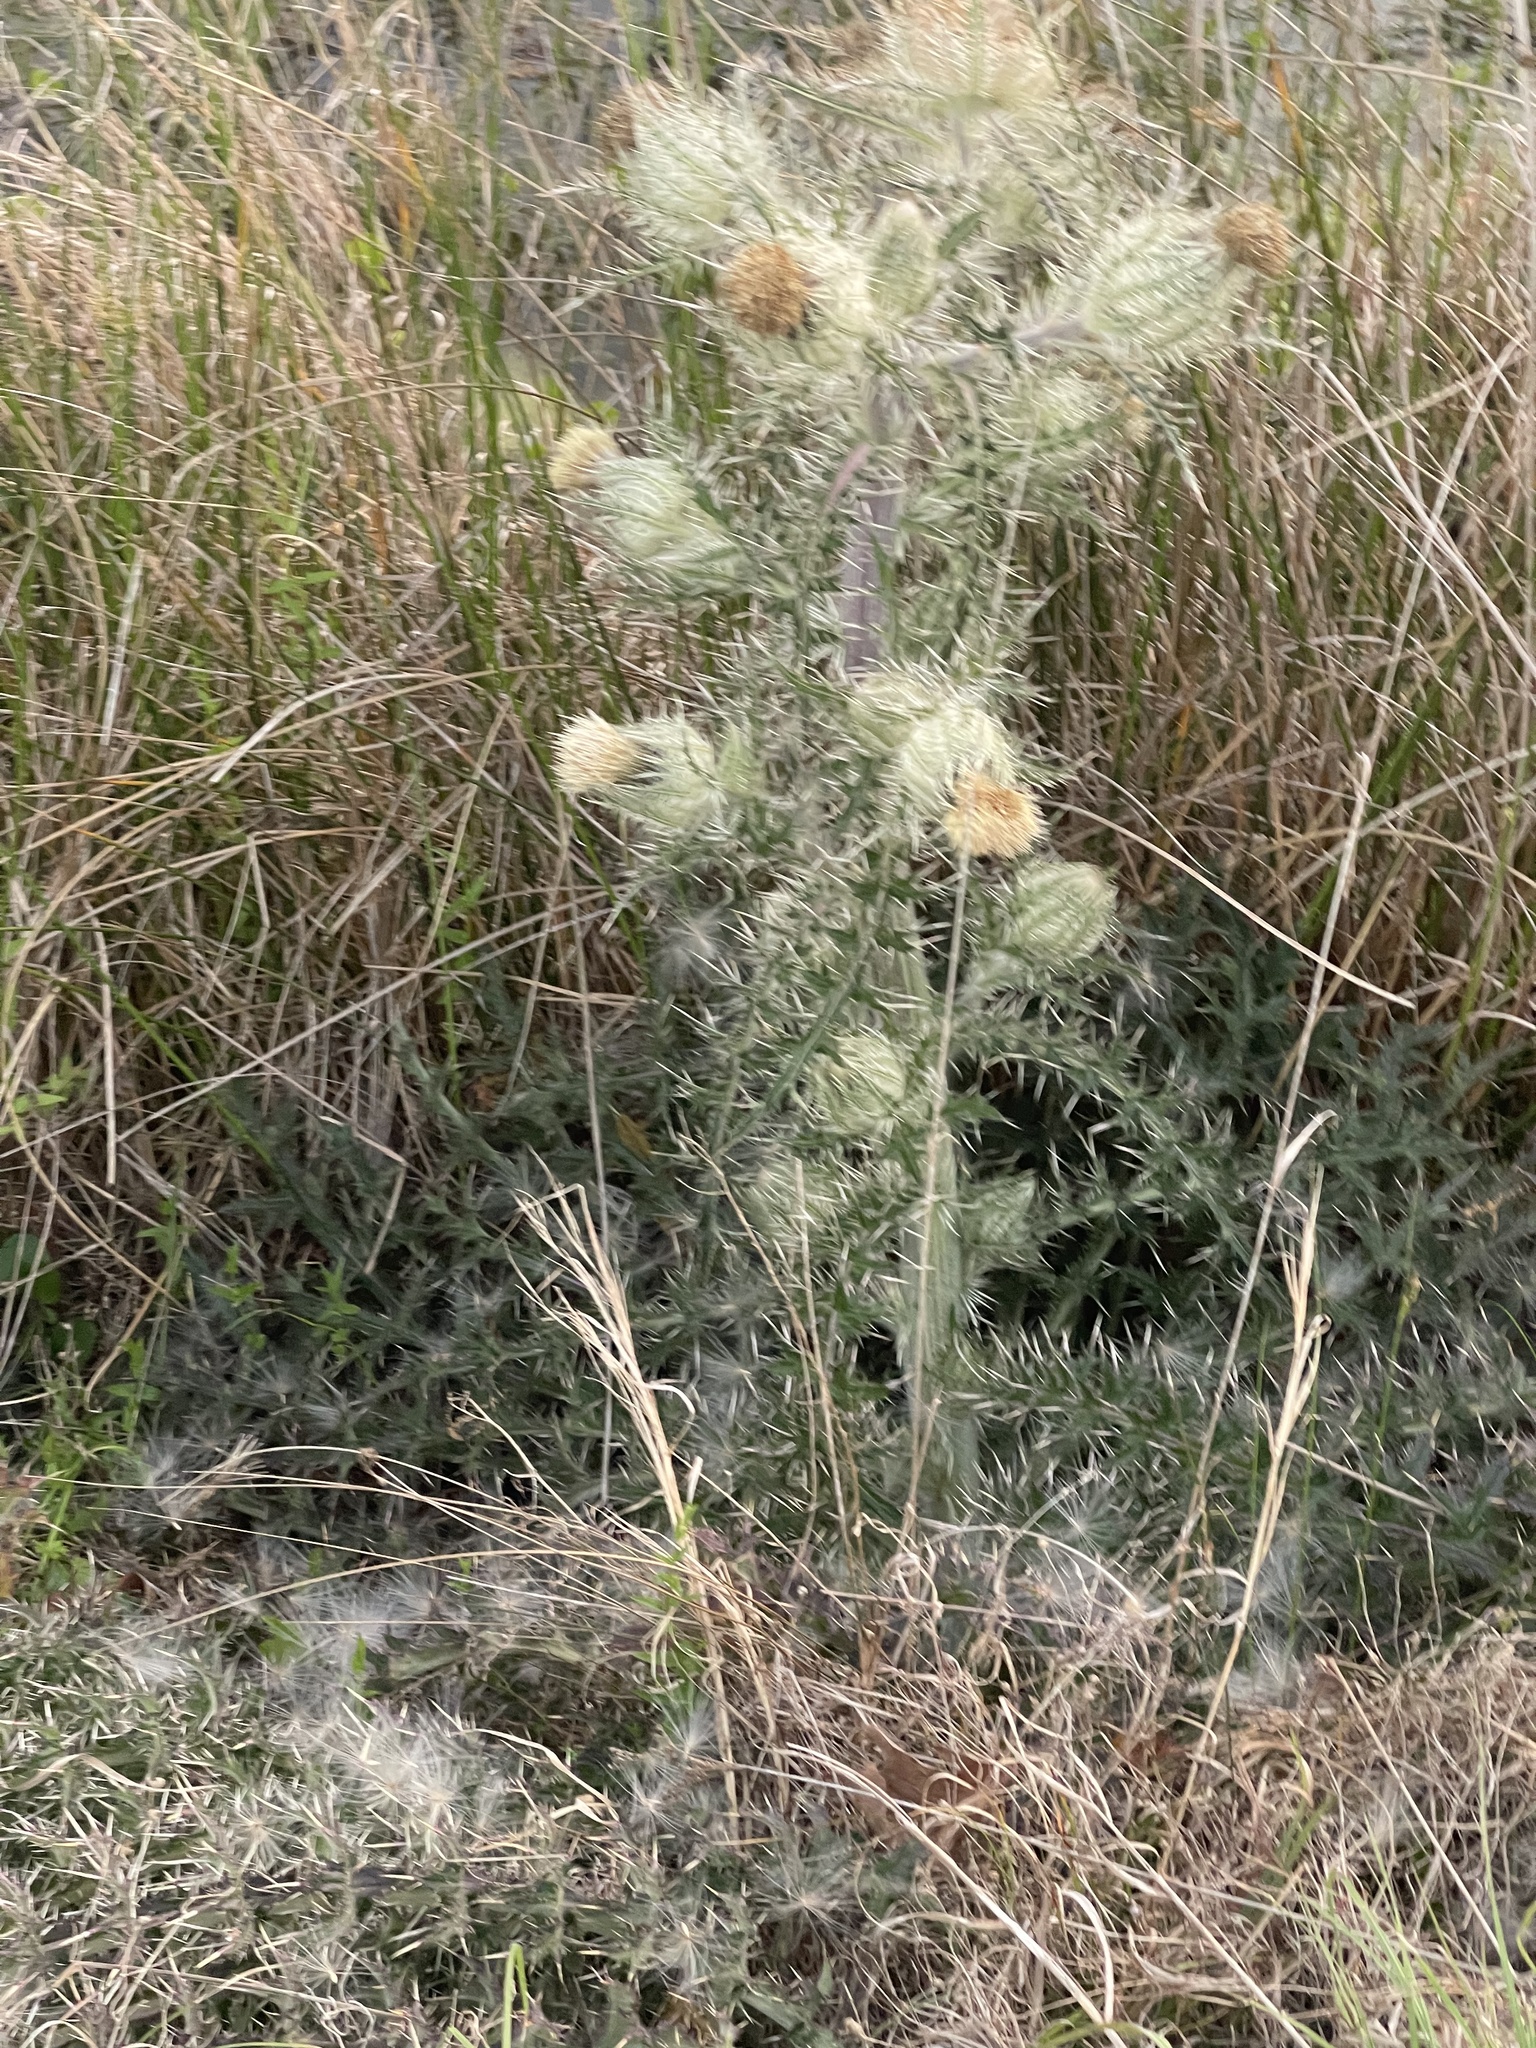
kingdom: Plantae
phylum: Tracheophyta
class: Magnoliopsida
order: Asterales
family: Asteraceae
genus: Cirsium
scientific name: Cirsium horridulum
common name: Bristly thistle
